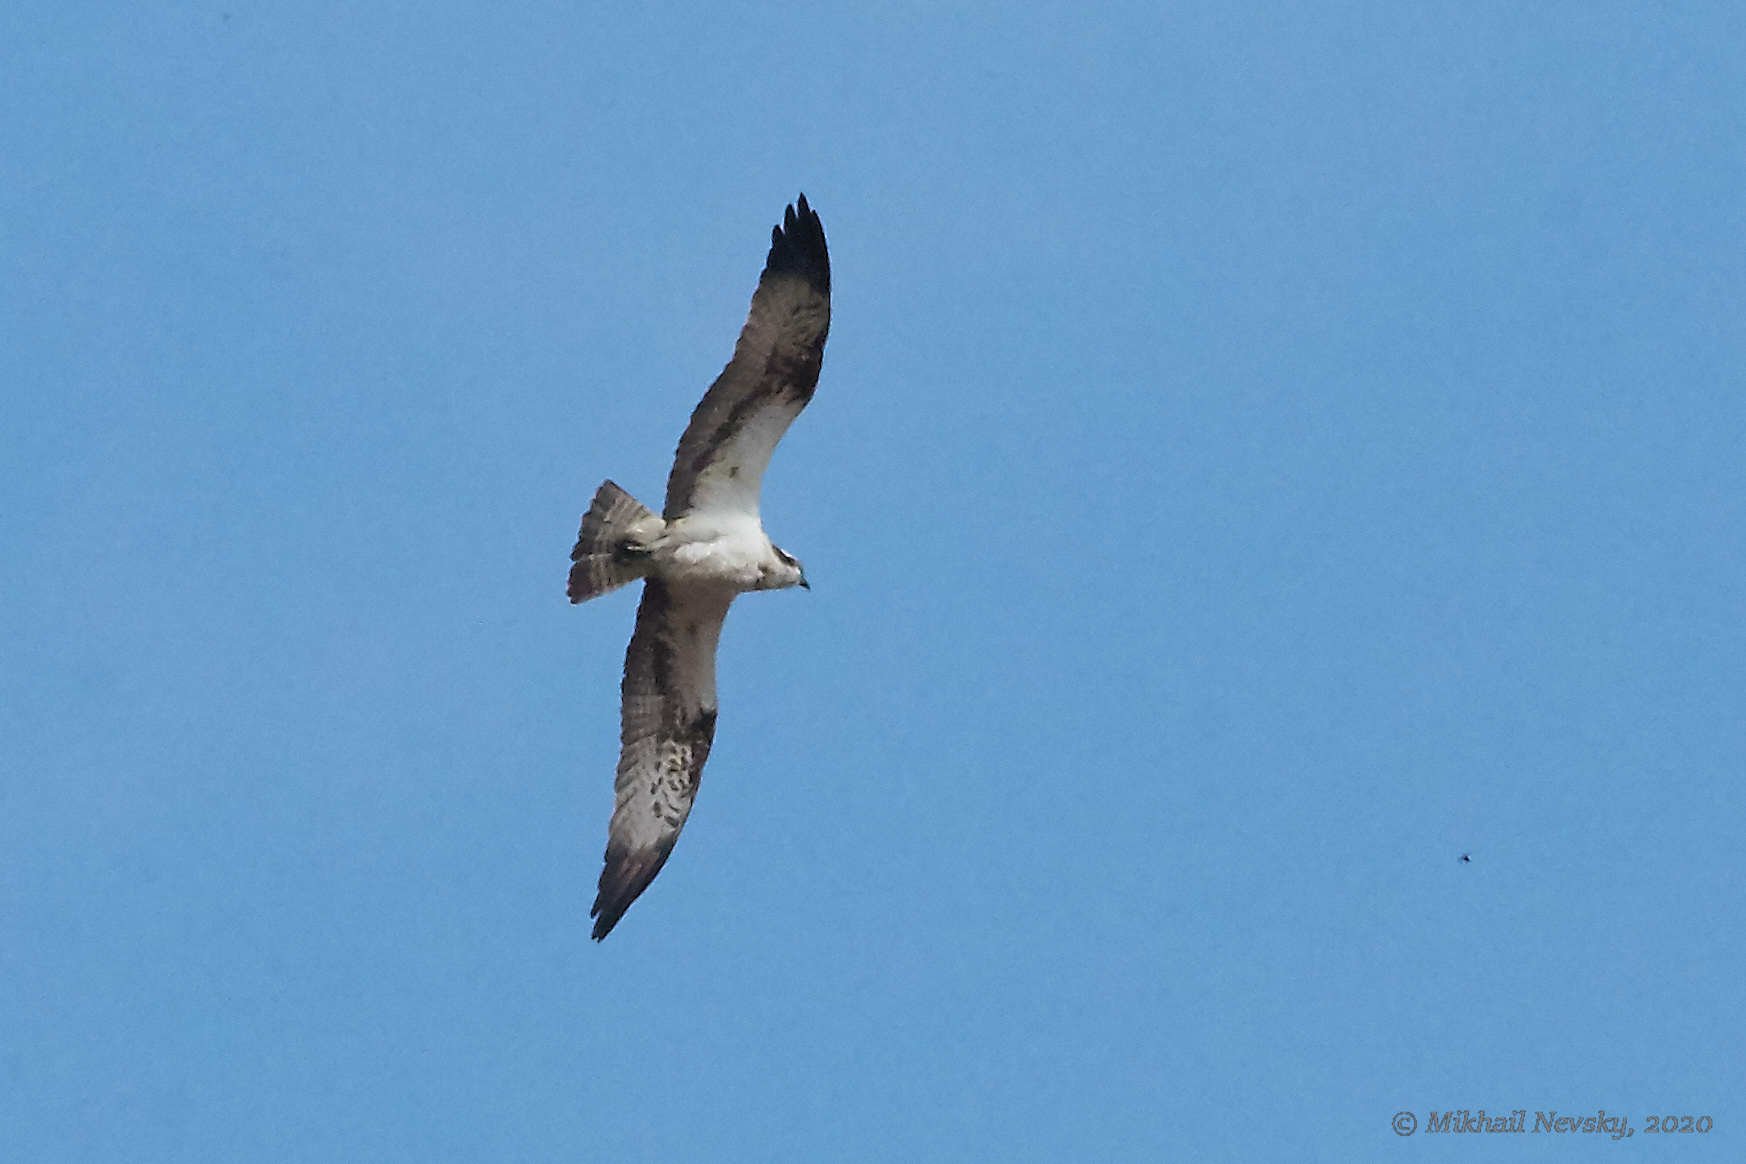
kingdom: Animalia
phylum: Chordata
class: Aves
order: Accipitriformes
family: Pandionidae
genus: Pandion
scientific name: Pandion haliaetus
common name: Osprey
